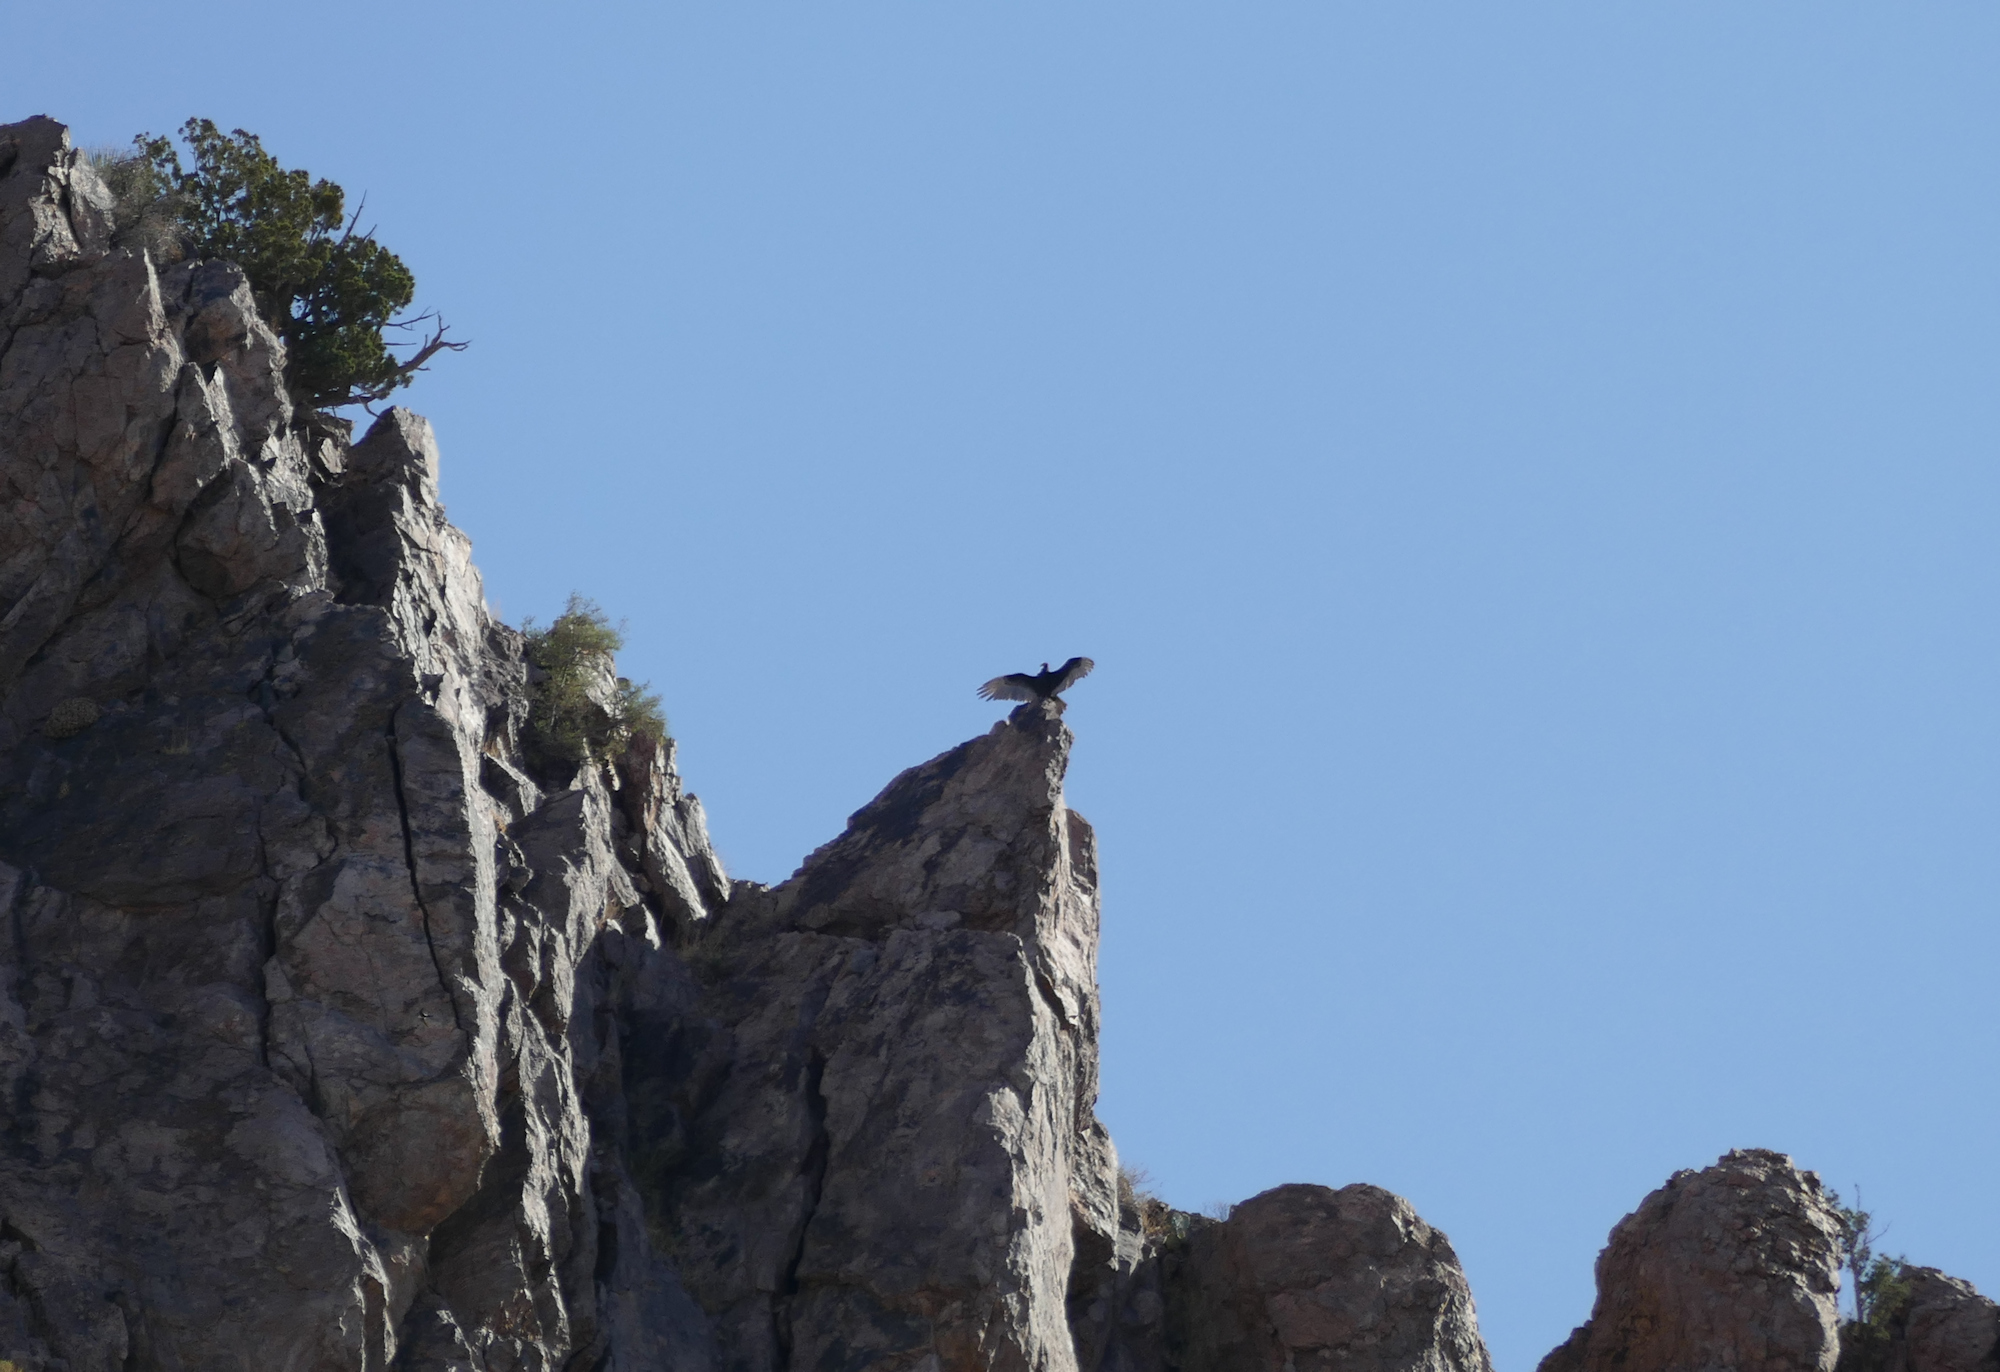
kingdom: Animalia
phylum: Chordata
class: Aves
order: Accipitriformes
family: Cathartidae
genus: Cathartes
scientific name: Cathartes aura
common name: Turkey vulture
